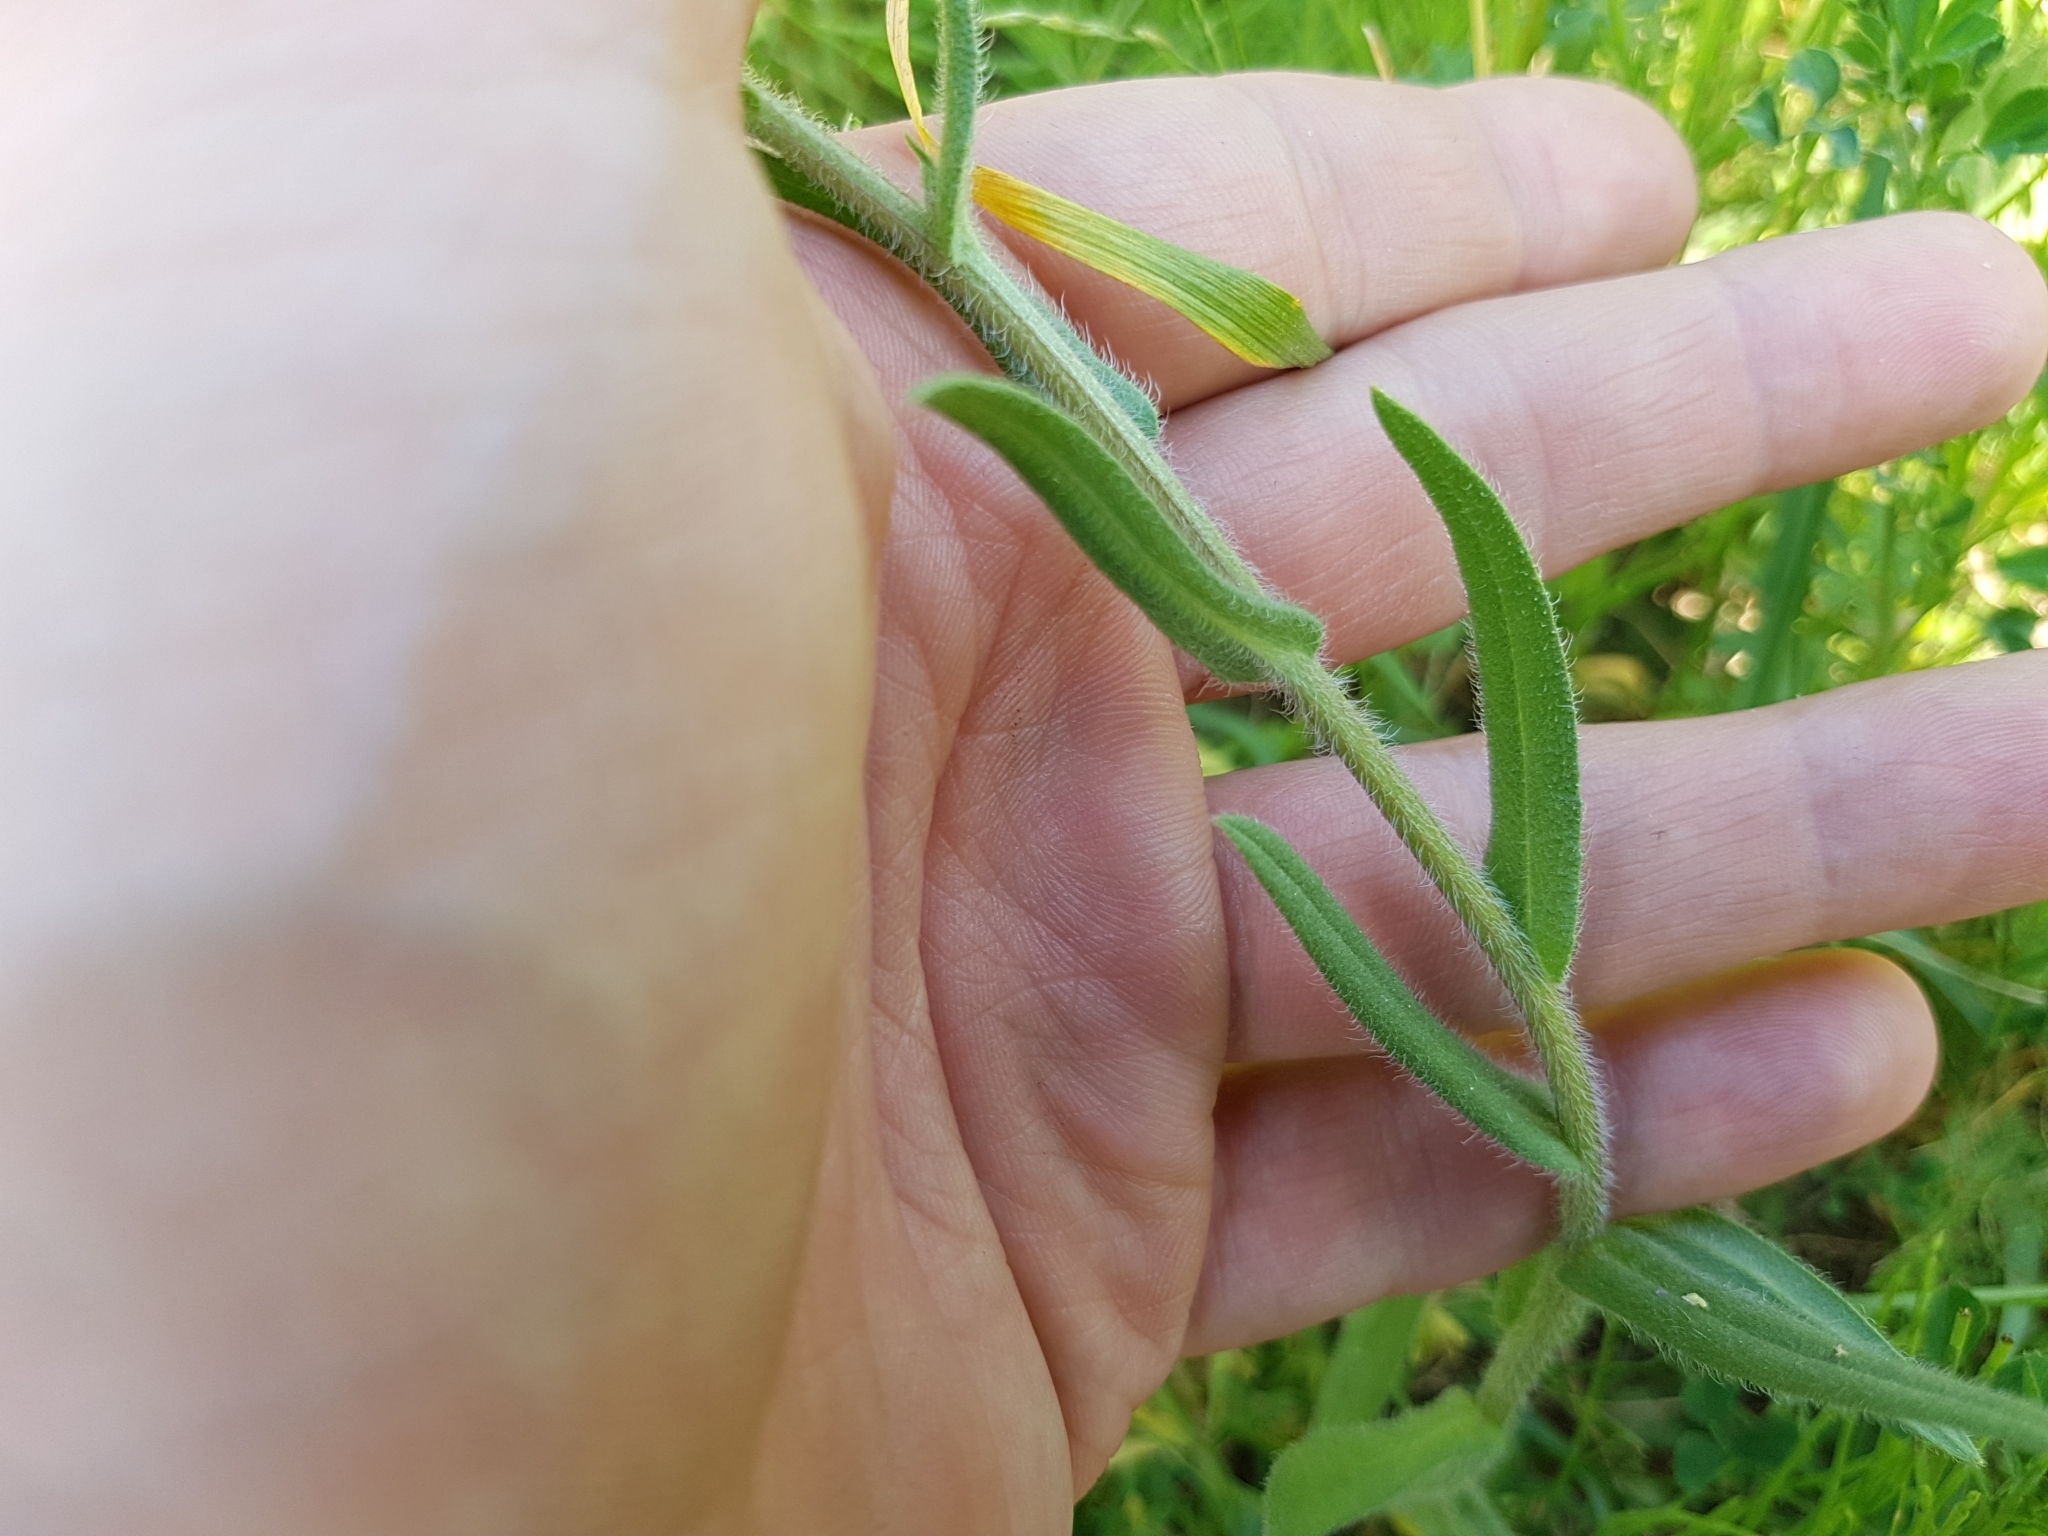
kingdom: Plantae
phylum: Tracheophyta
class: Magnoliopsida
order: Boraginales
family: Boraginaceae
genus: Anchusa
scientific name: Anchusa officinalis
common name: Alkanet
